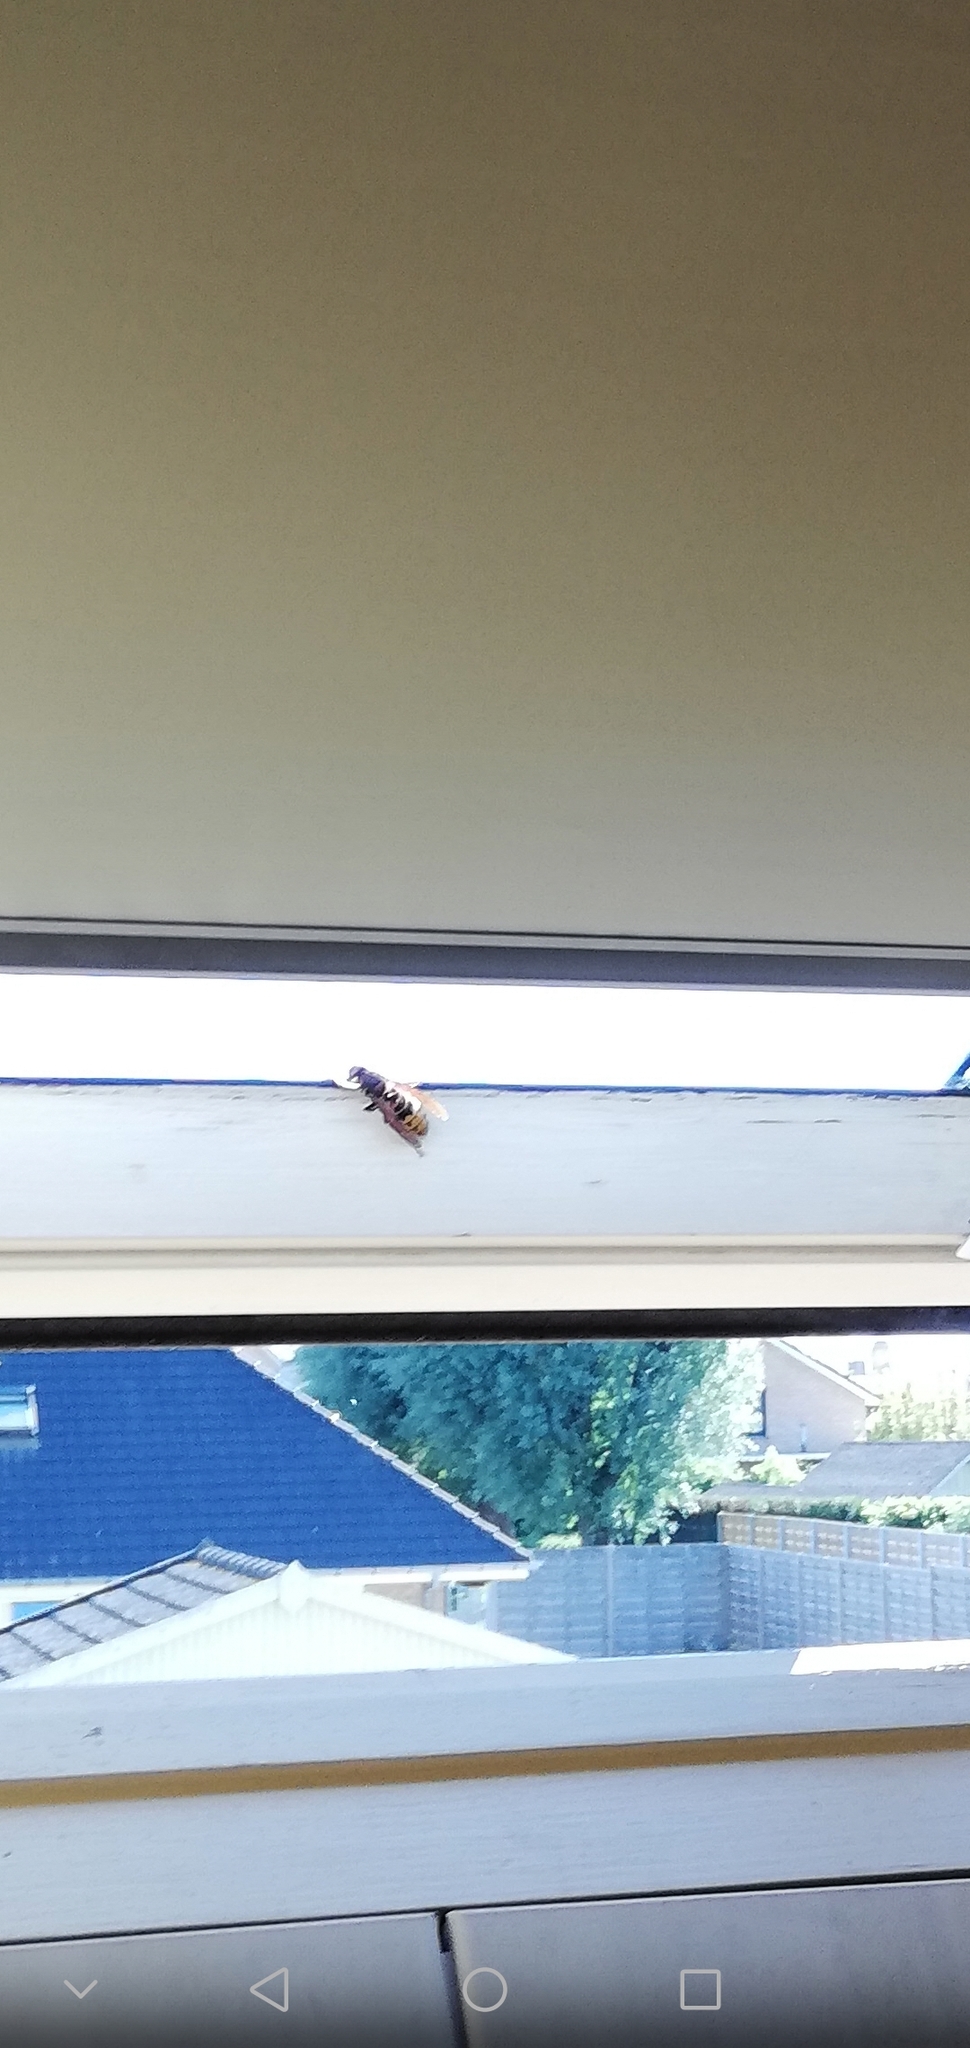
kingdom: Animalia
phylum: Arthropoda
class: Insecta
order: Hymenoptera
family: Vespidae
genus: Vespa
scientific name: Vespa crabro
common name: Hornet
